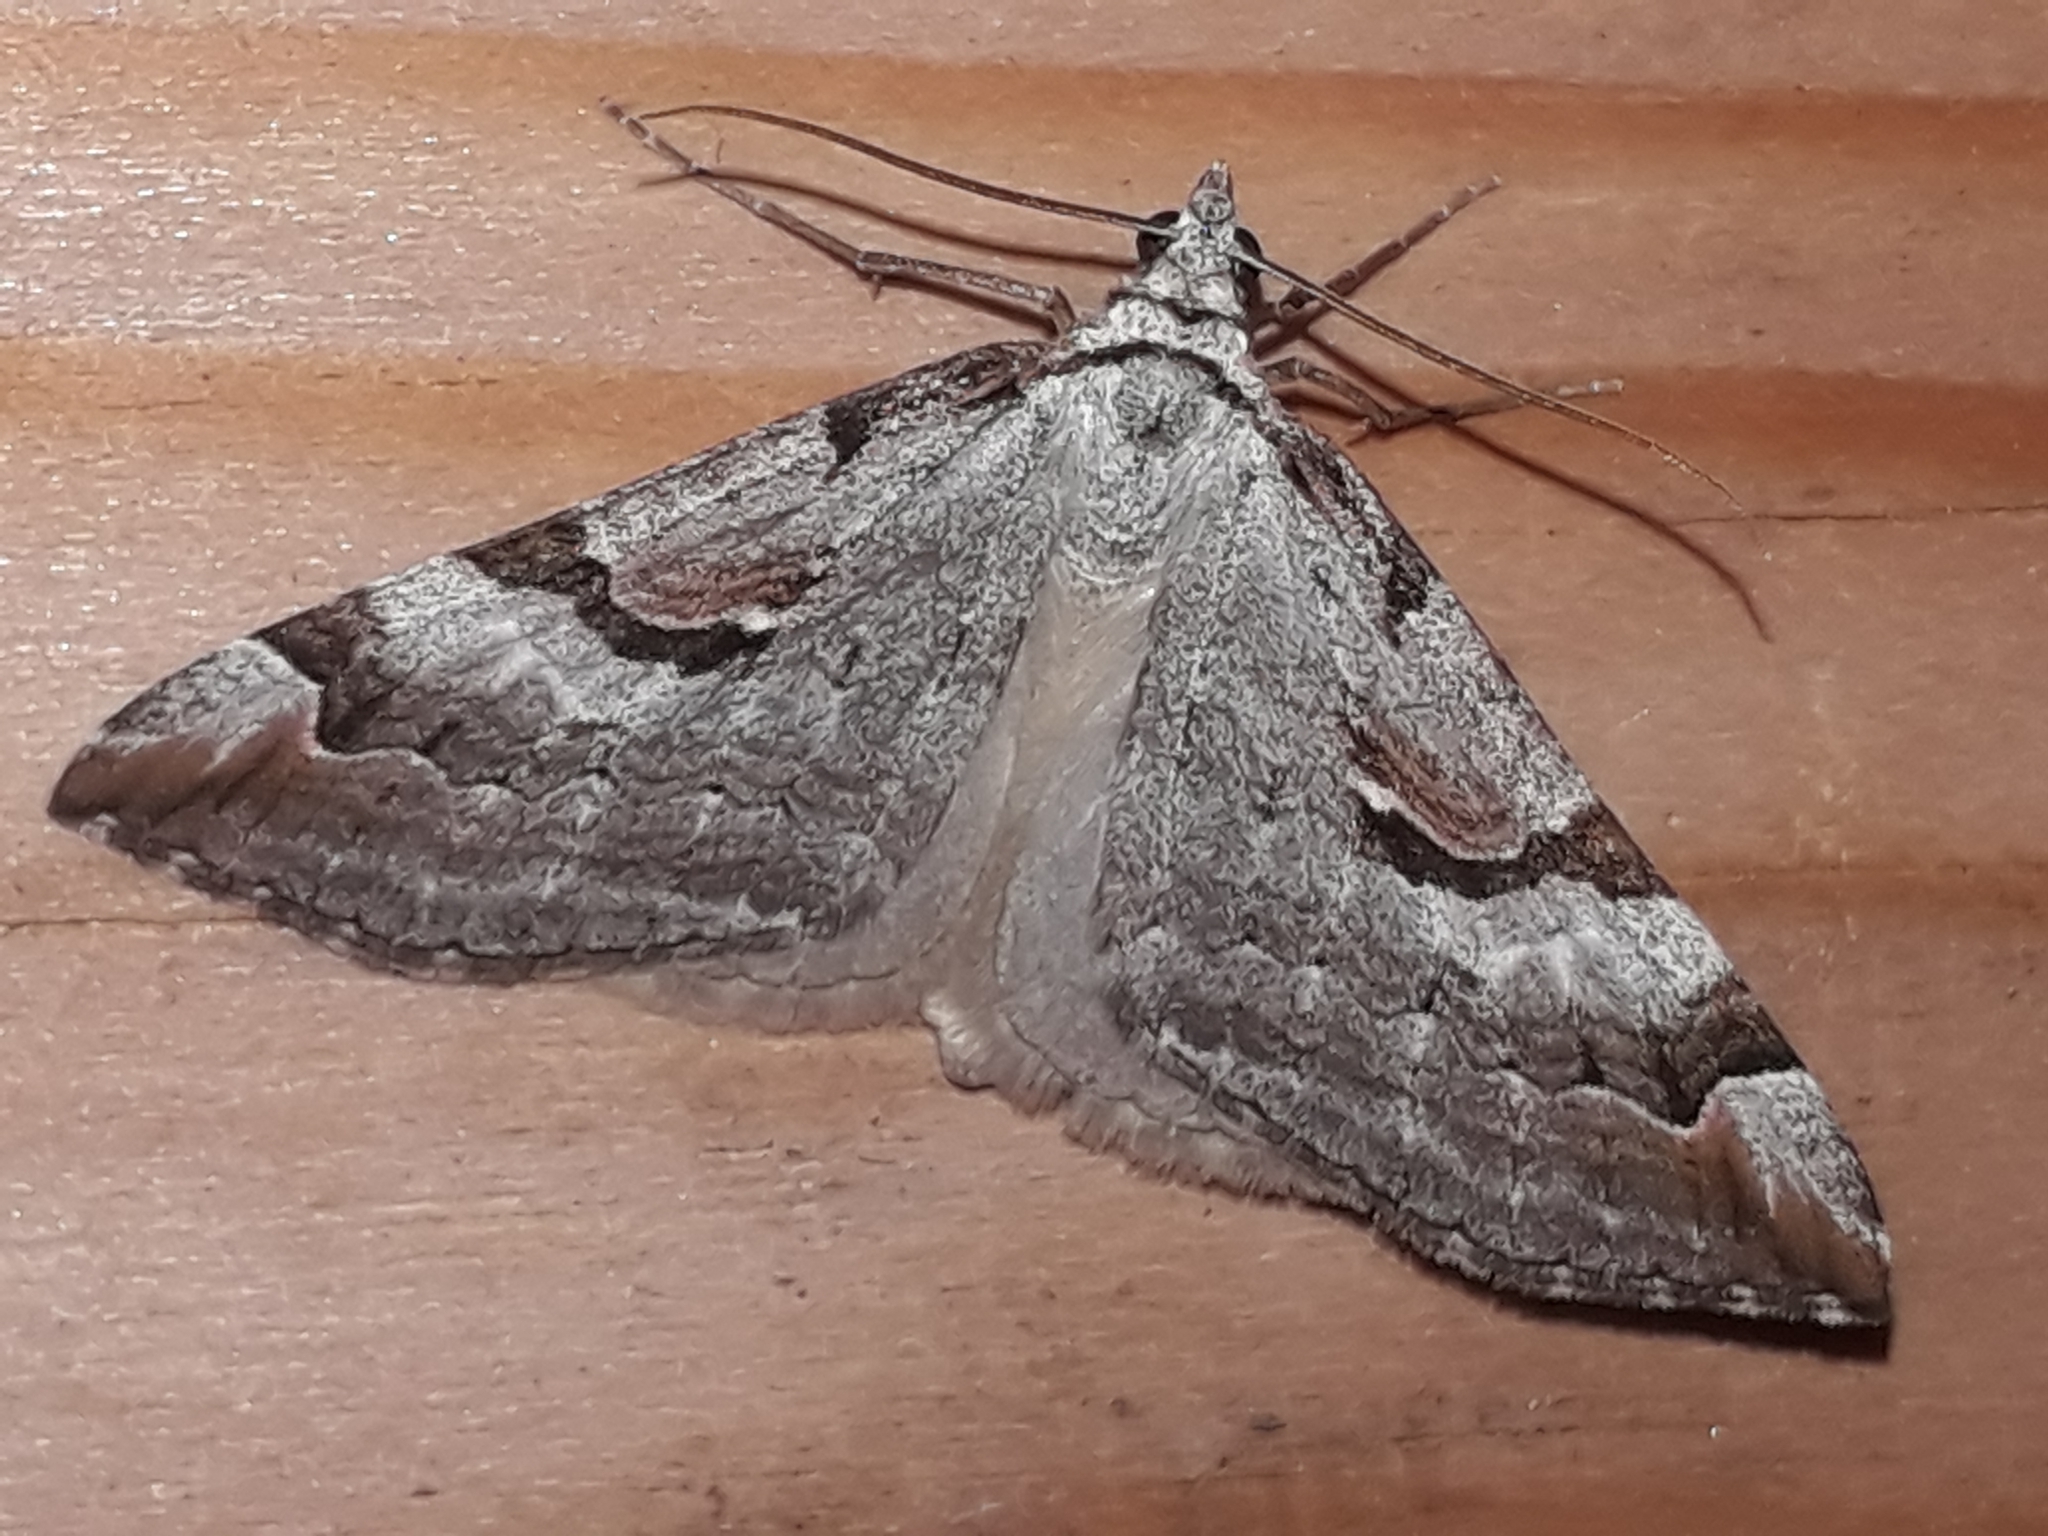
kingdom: Animalia
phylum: Arthropoda
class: Insecta
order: Lepidoptera
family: Geometridae
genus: Aplocera
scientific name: Aplocera praeformata
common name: Purple treble-bar
